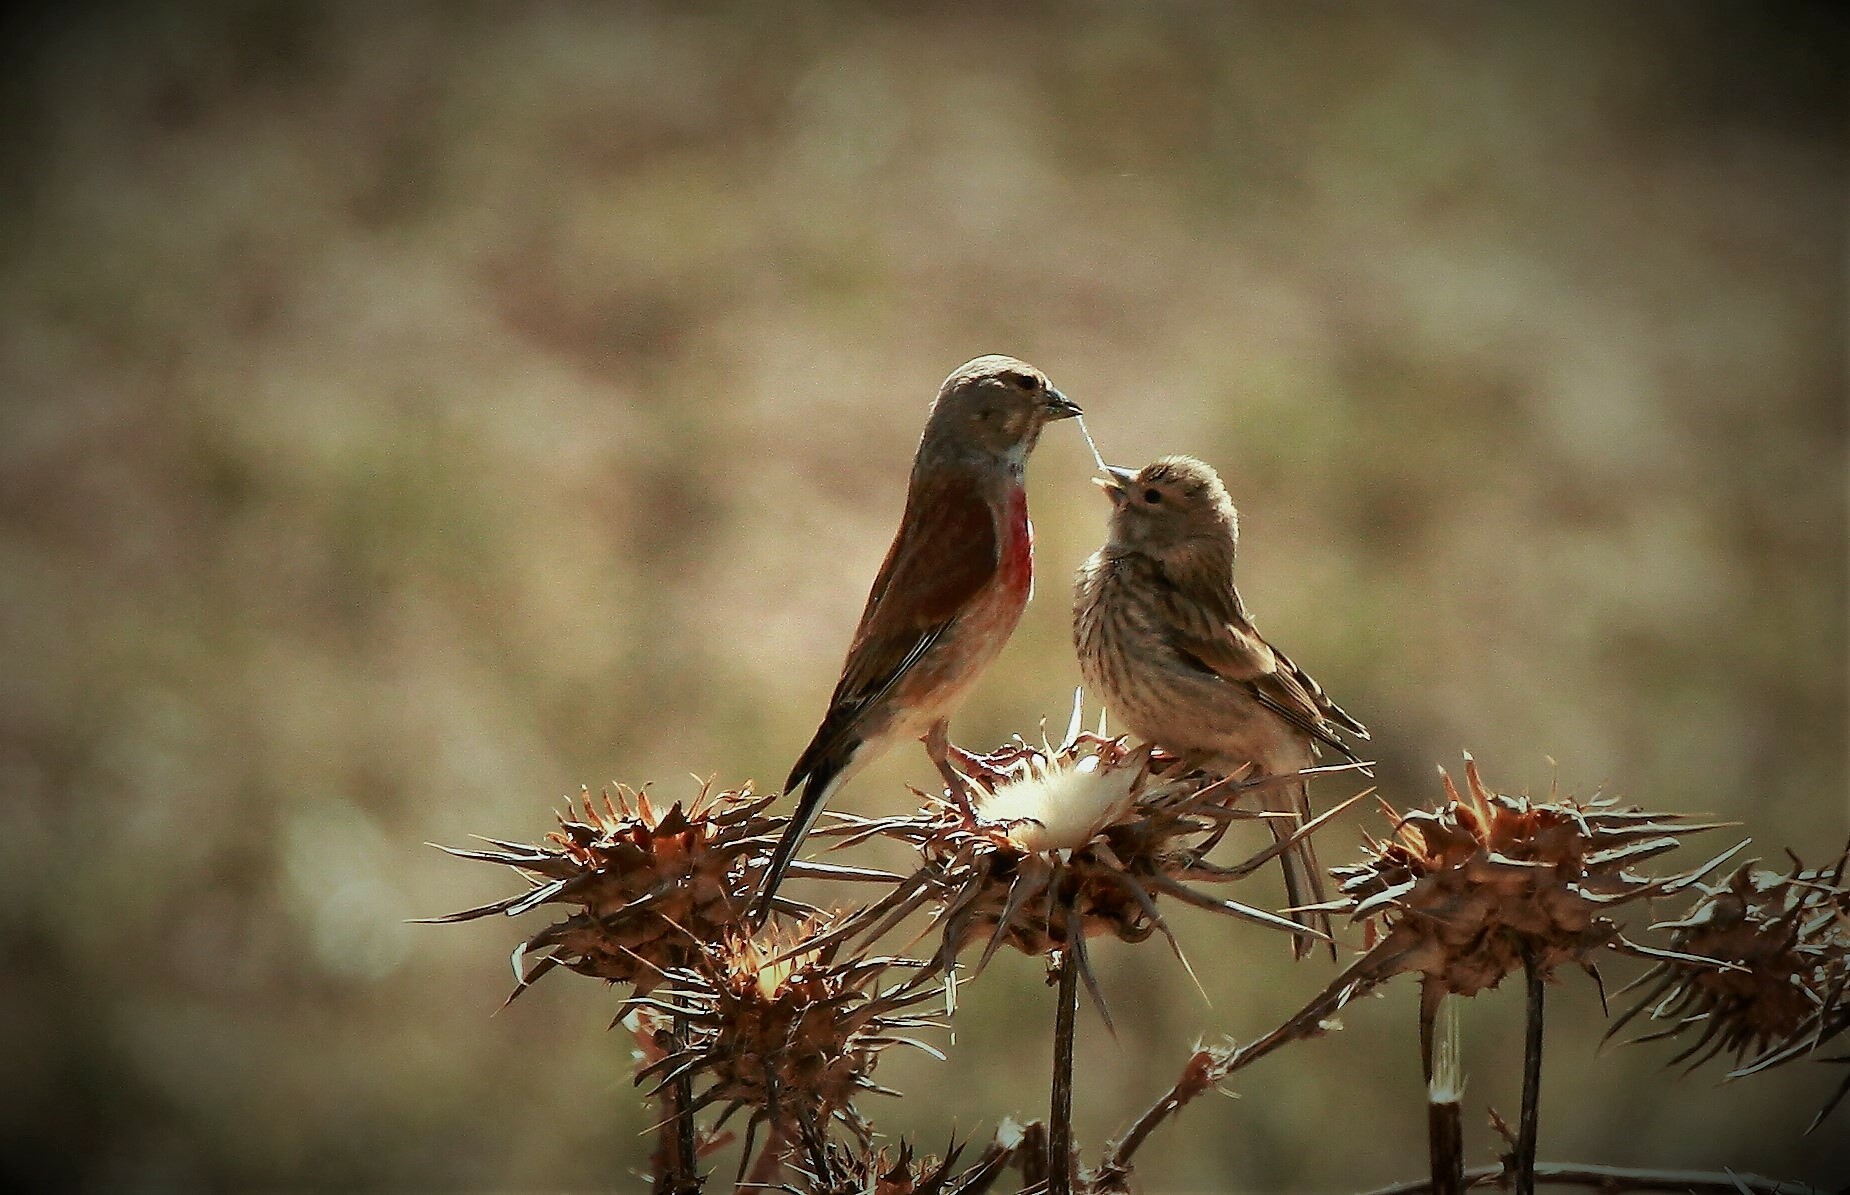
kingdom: Animalia
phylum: Chordata
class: Aves
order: Passeriformes
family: Fringillidae
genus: Linaria
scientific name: Linaria cannabina
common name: Common linnet
